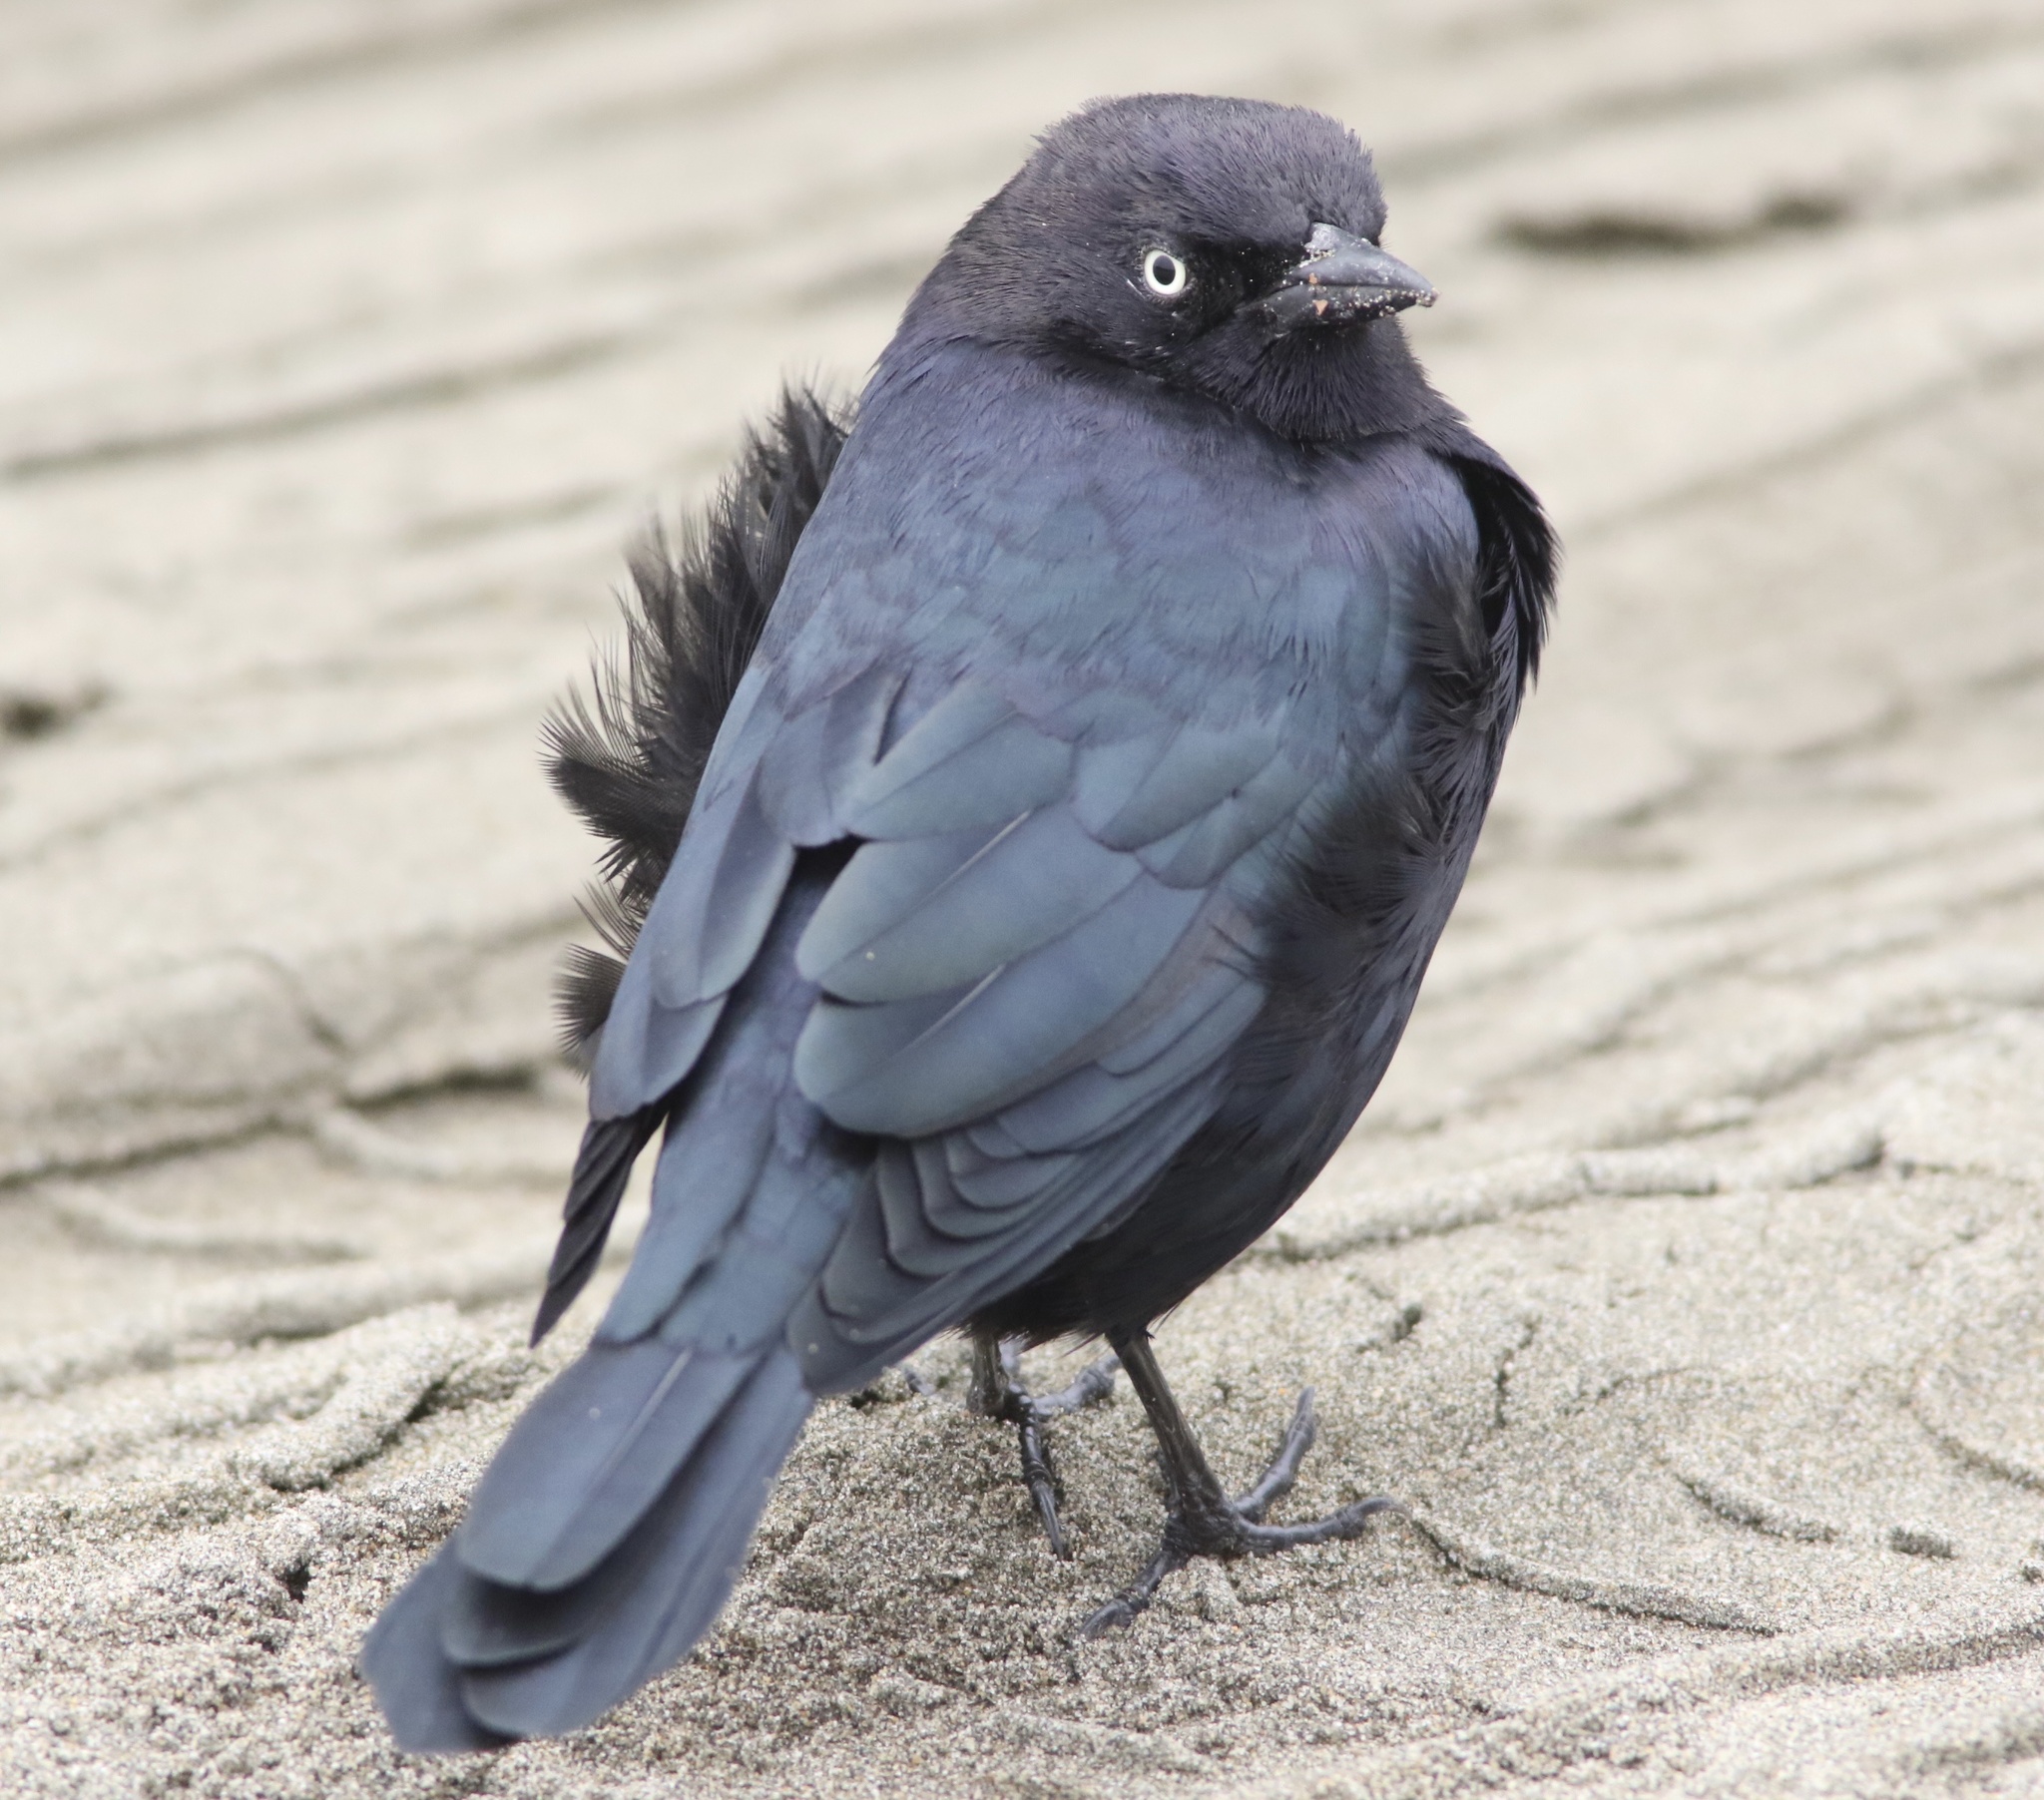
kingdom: Animalia
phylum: Chordata
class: Aves
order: Passeriformes
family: Icteridae
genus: Euphagus
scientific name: Euphagus cyanocephalus
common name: Brewer's blackbird
